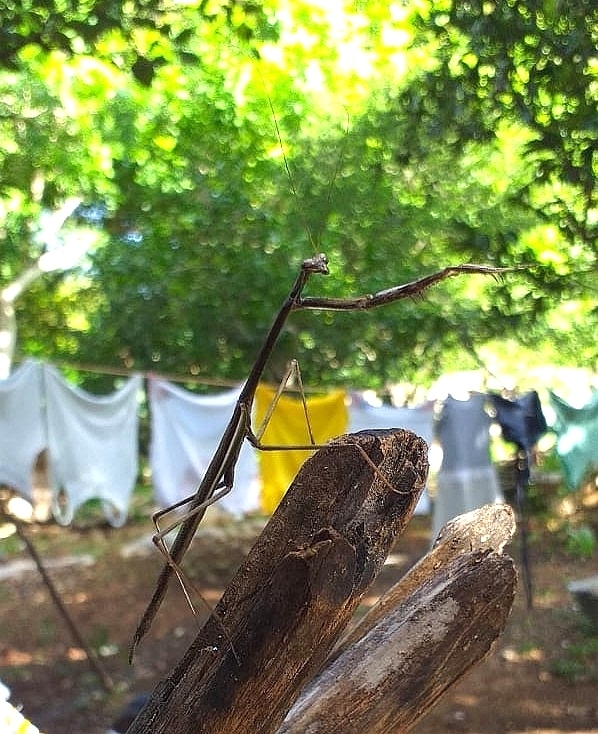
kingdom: Animalia
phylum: Arthropoda
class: Insecta
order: Mantodea
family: Mantidae
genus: Phasmomantis
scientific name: Phasmomantis sumichrasti
